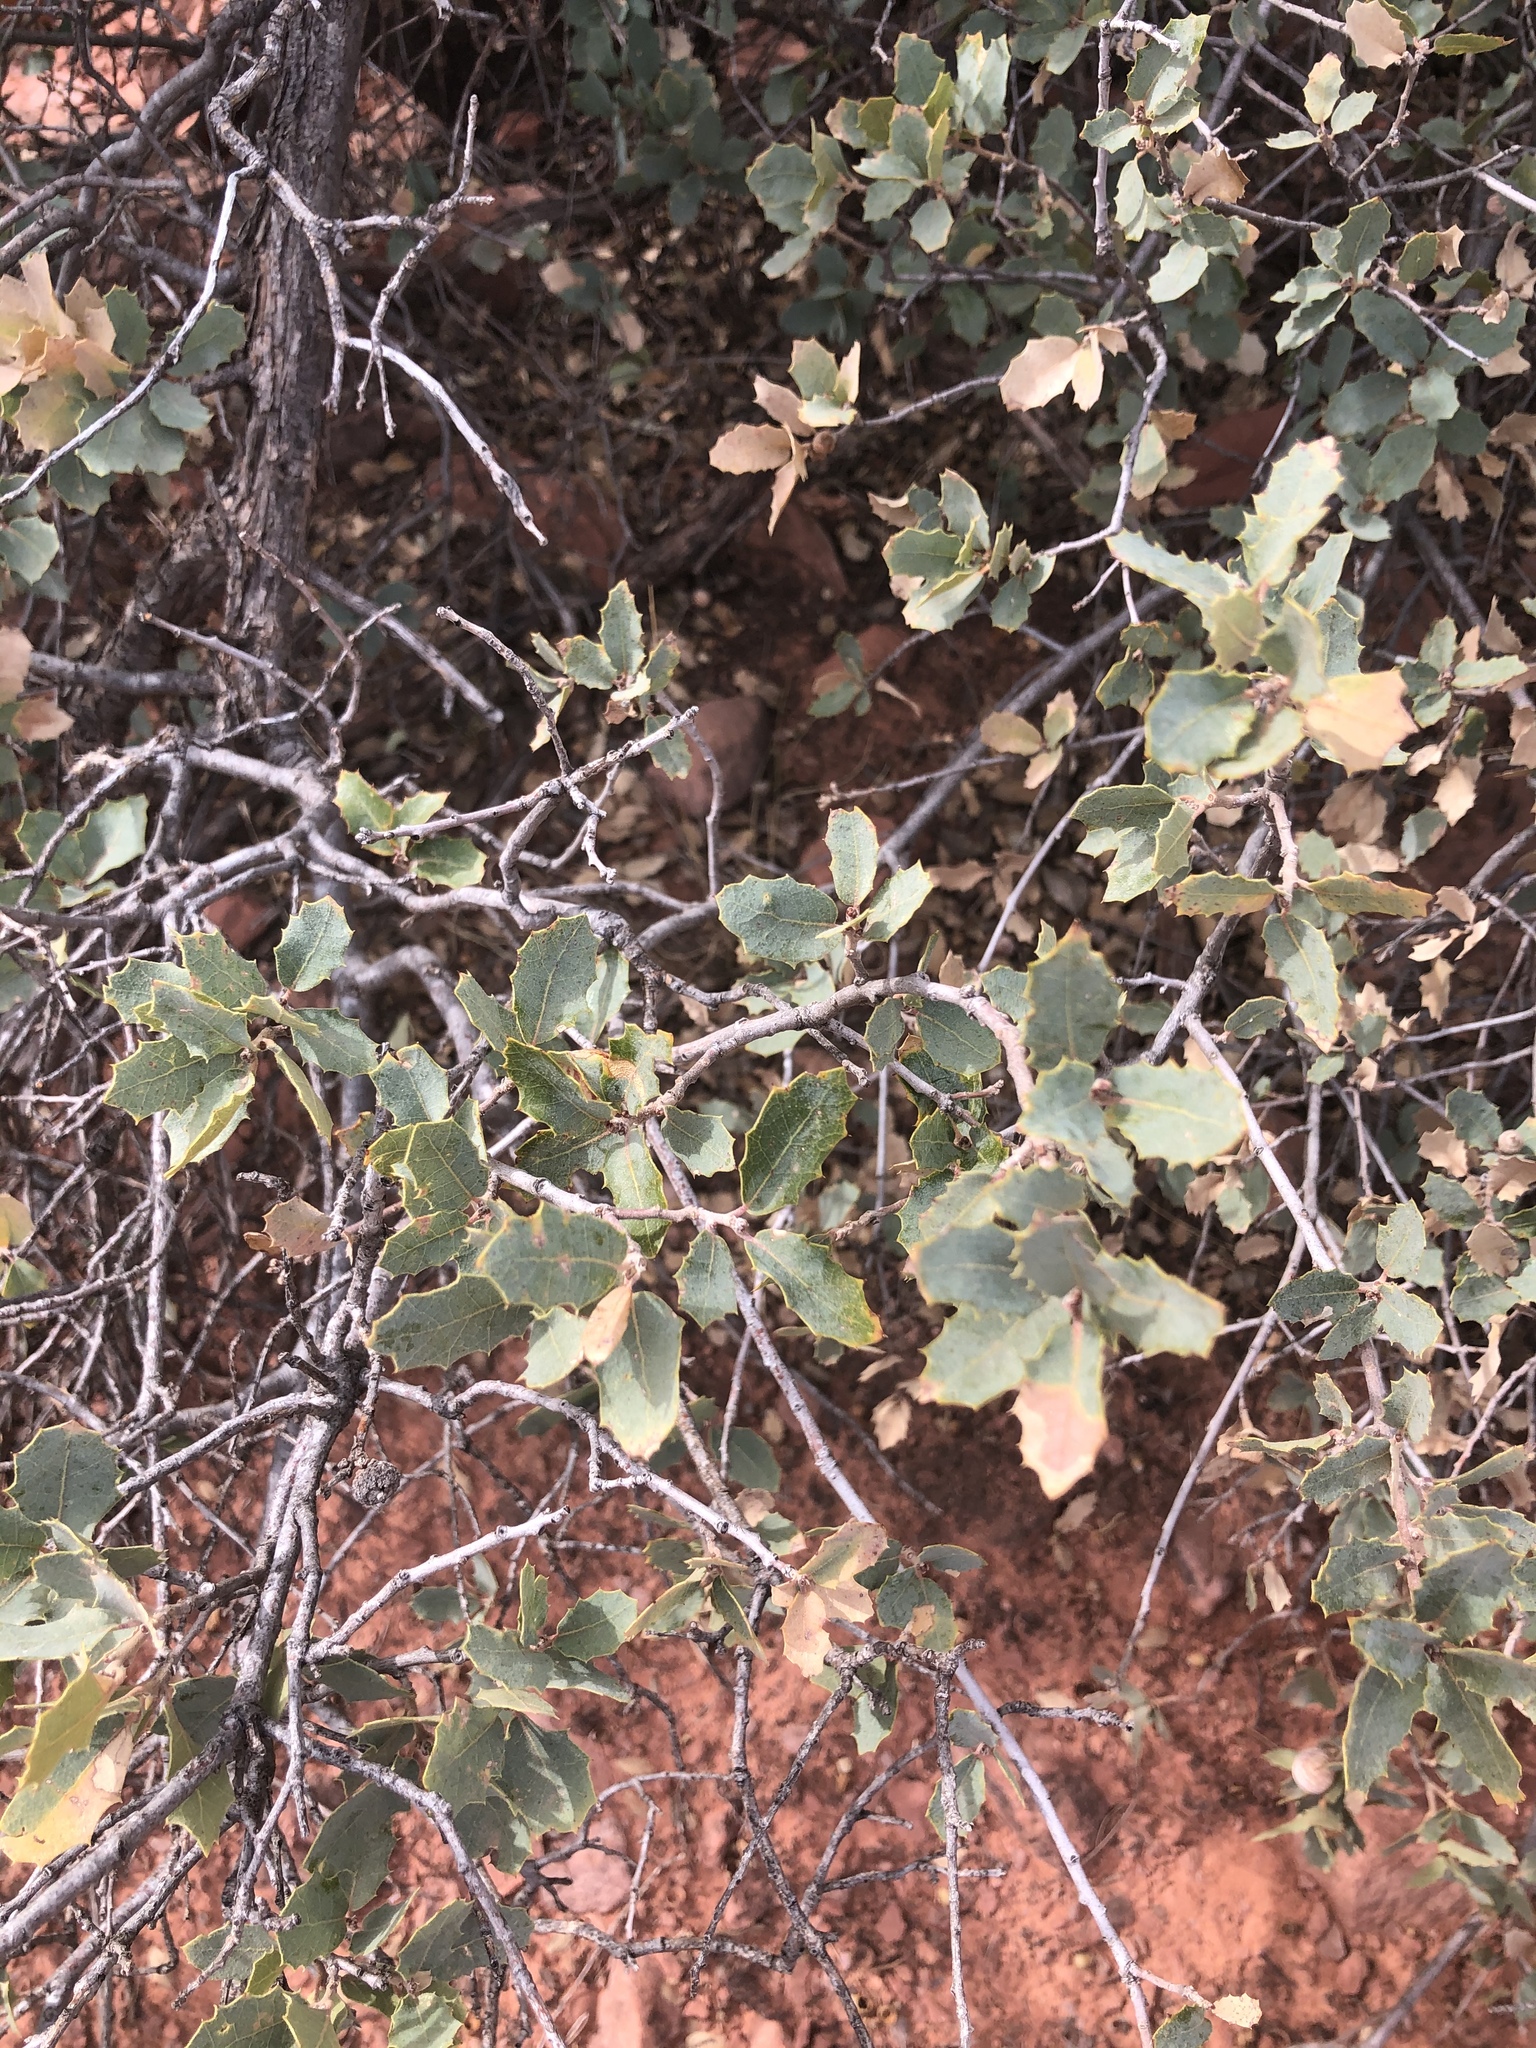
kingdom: Plantae
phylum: Tracheophyta
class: Magnoliopsida
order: Fagales
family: Fagaceae
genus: Quercus
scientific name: Quercus turbinella
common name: Sonoran scrub oak
